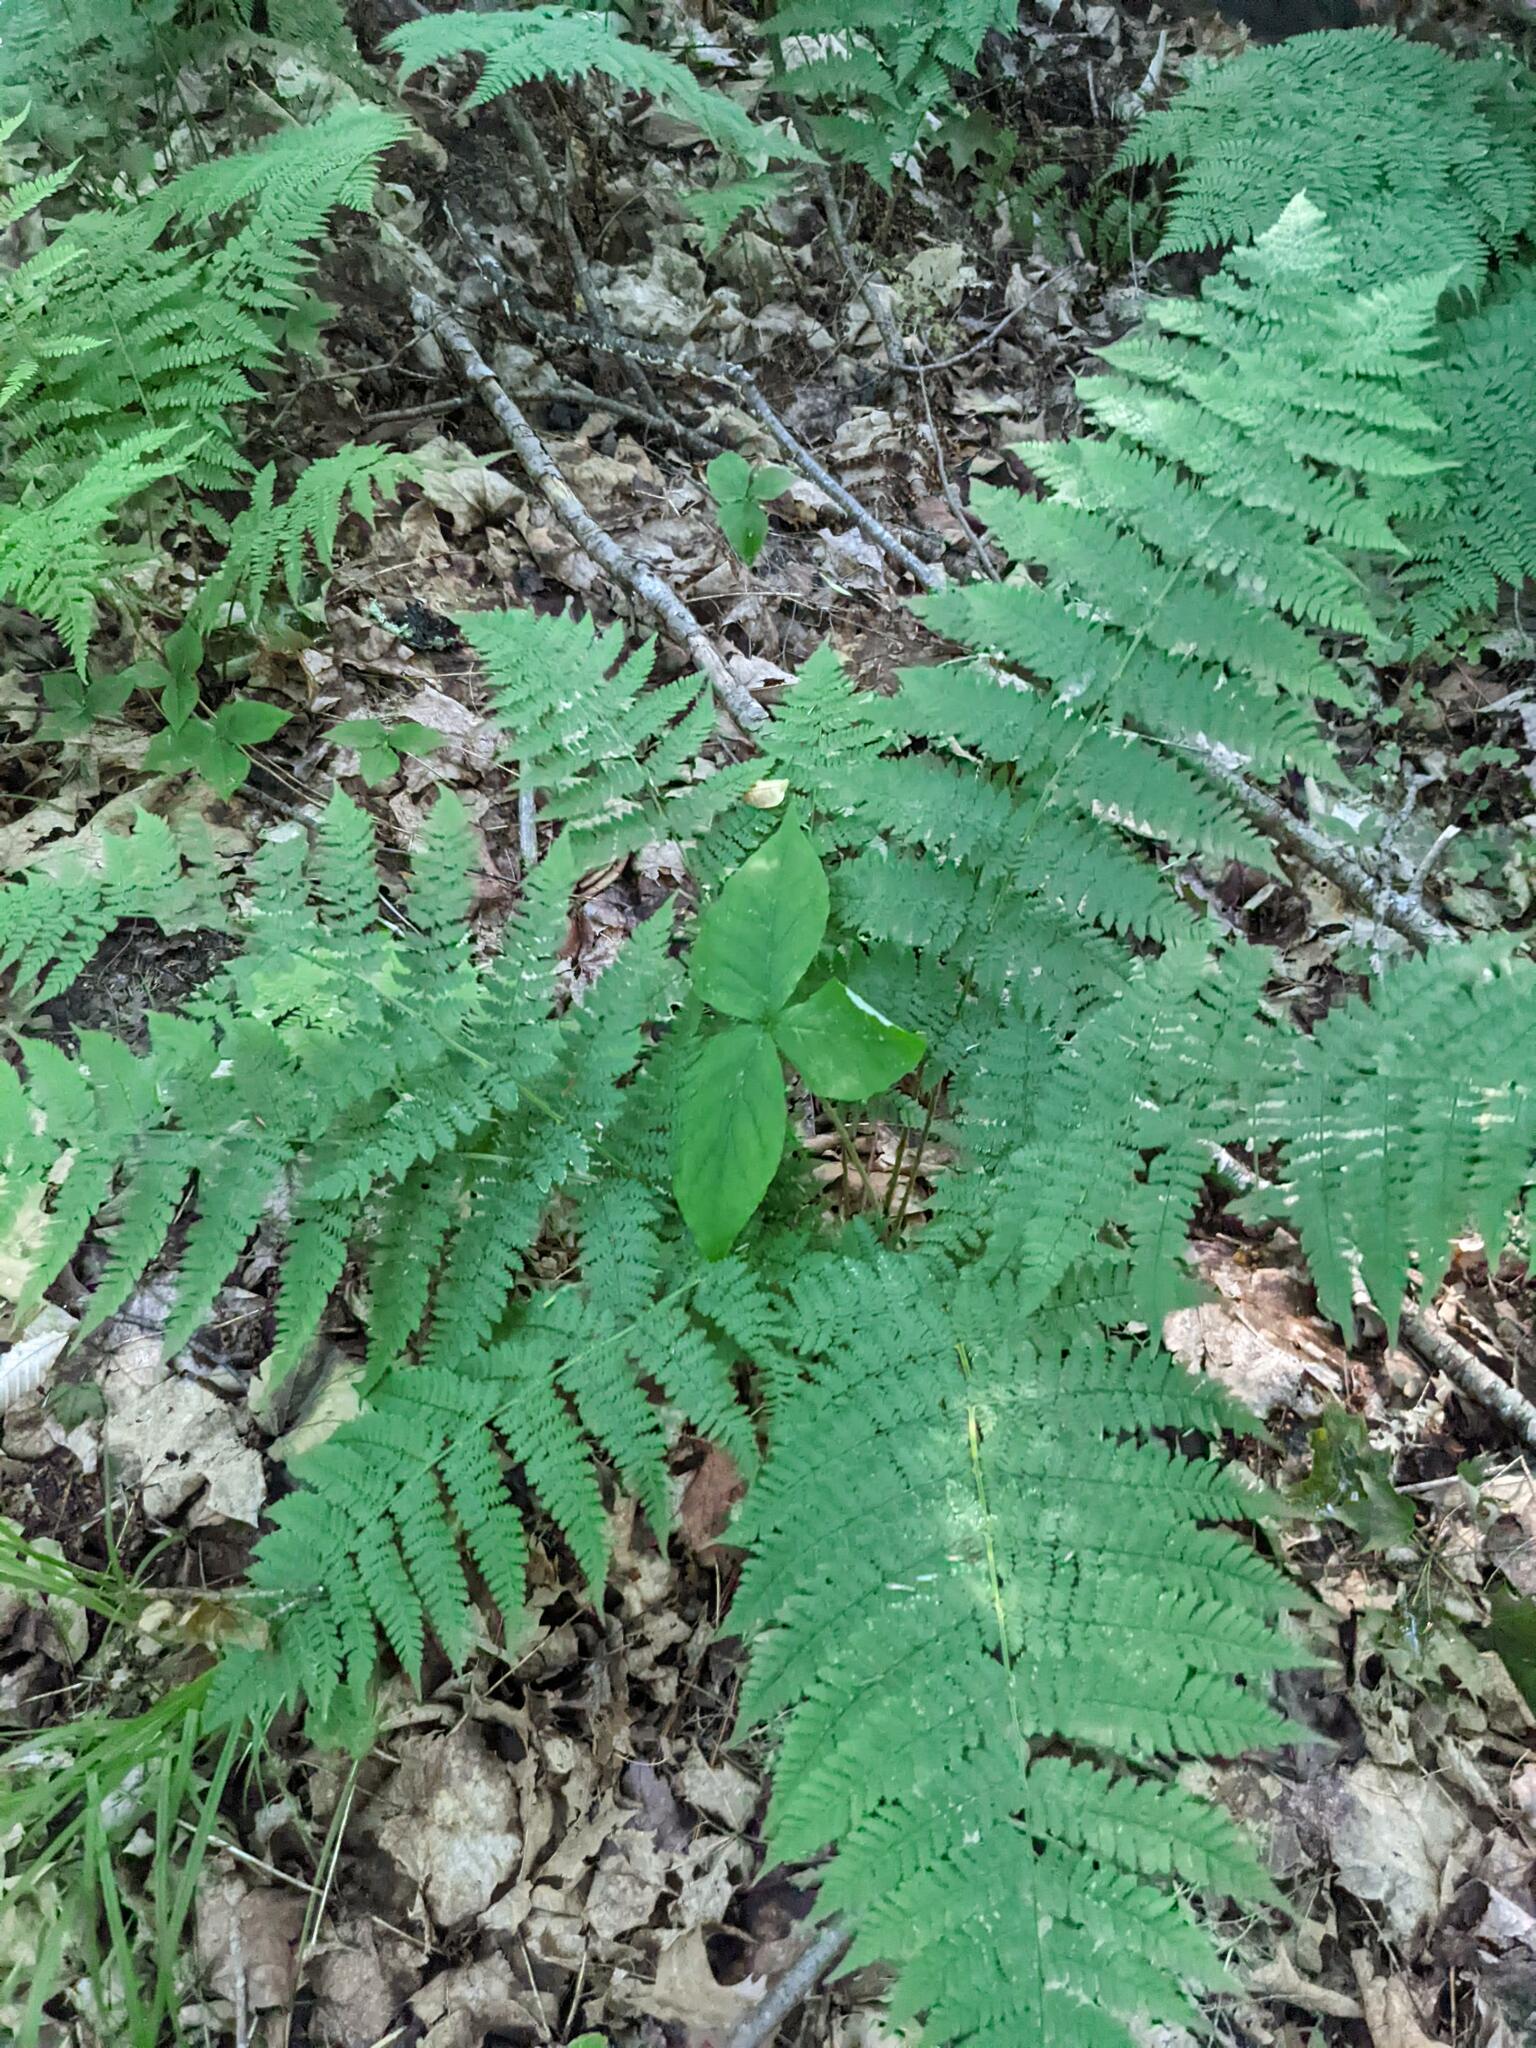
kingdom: Plantae
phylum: Tracheophyta
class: Liliopsida
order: Alismatales
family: Araceae
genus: Arisaema
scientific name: Arisaema triphyllum
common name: Jack-in-the-pulpit
